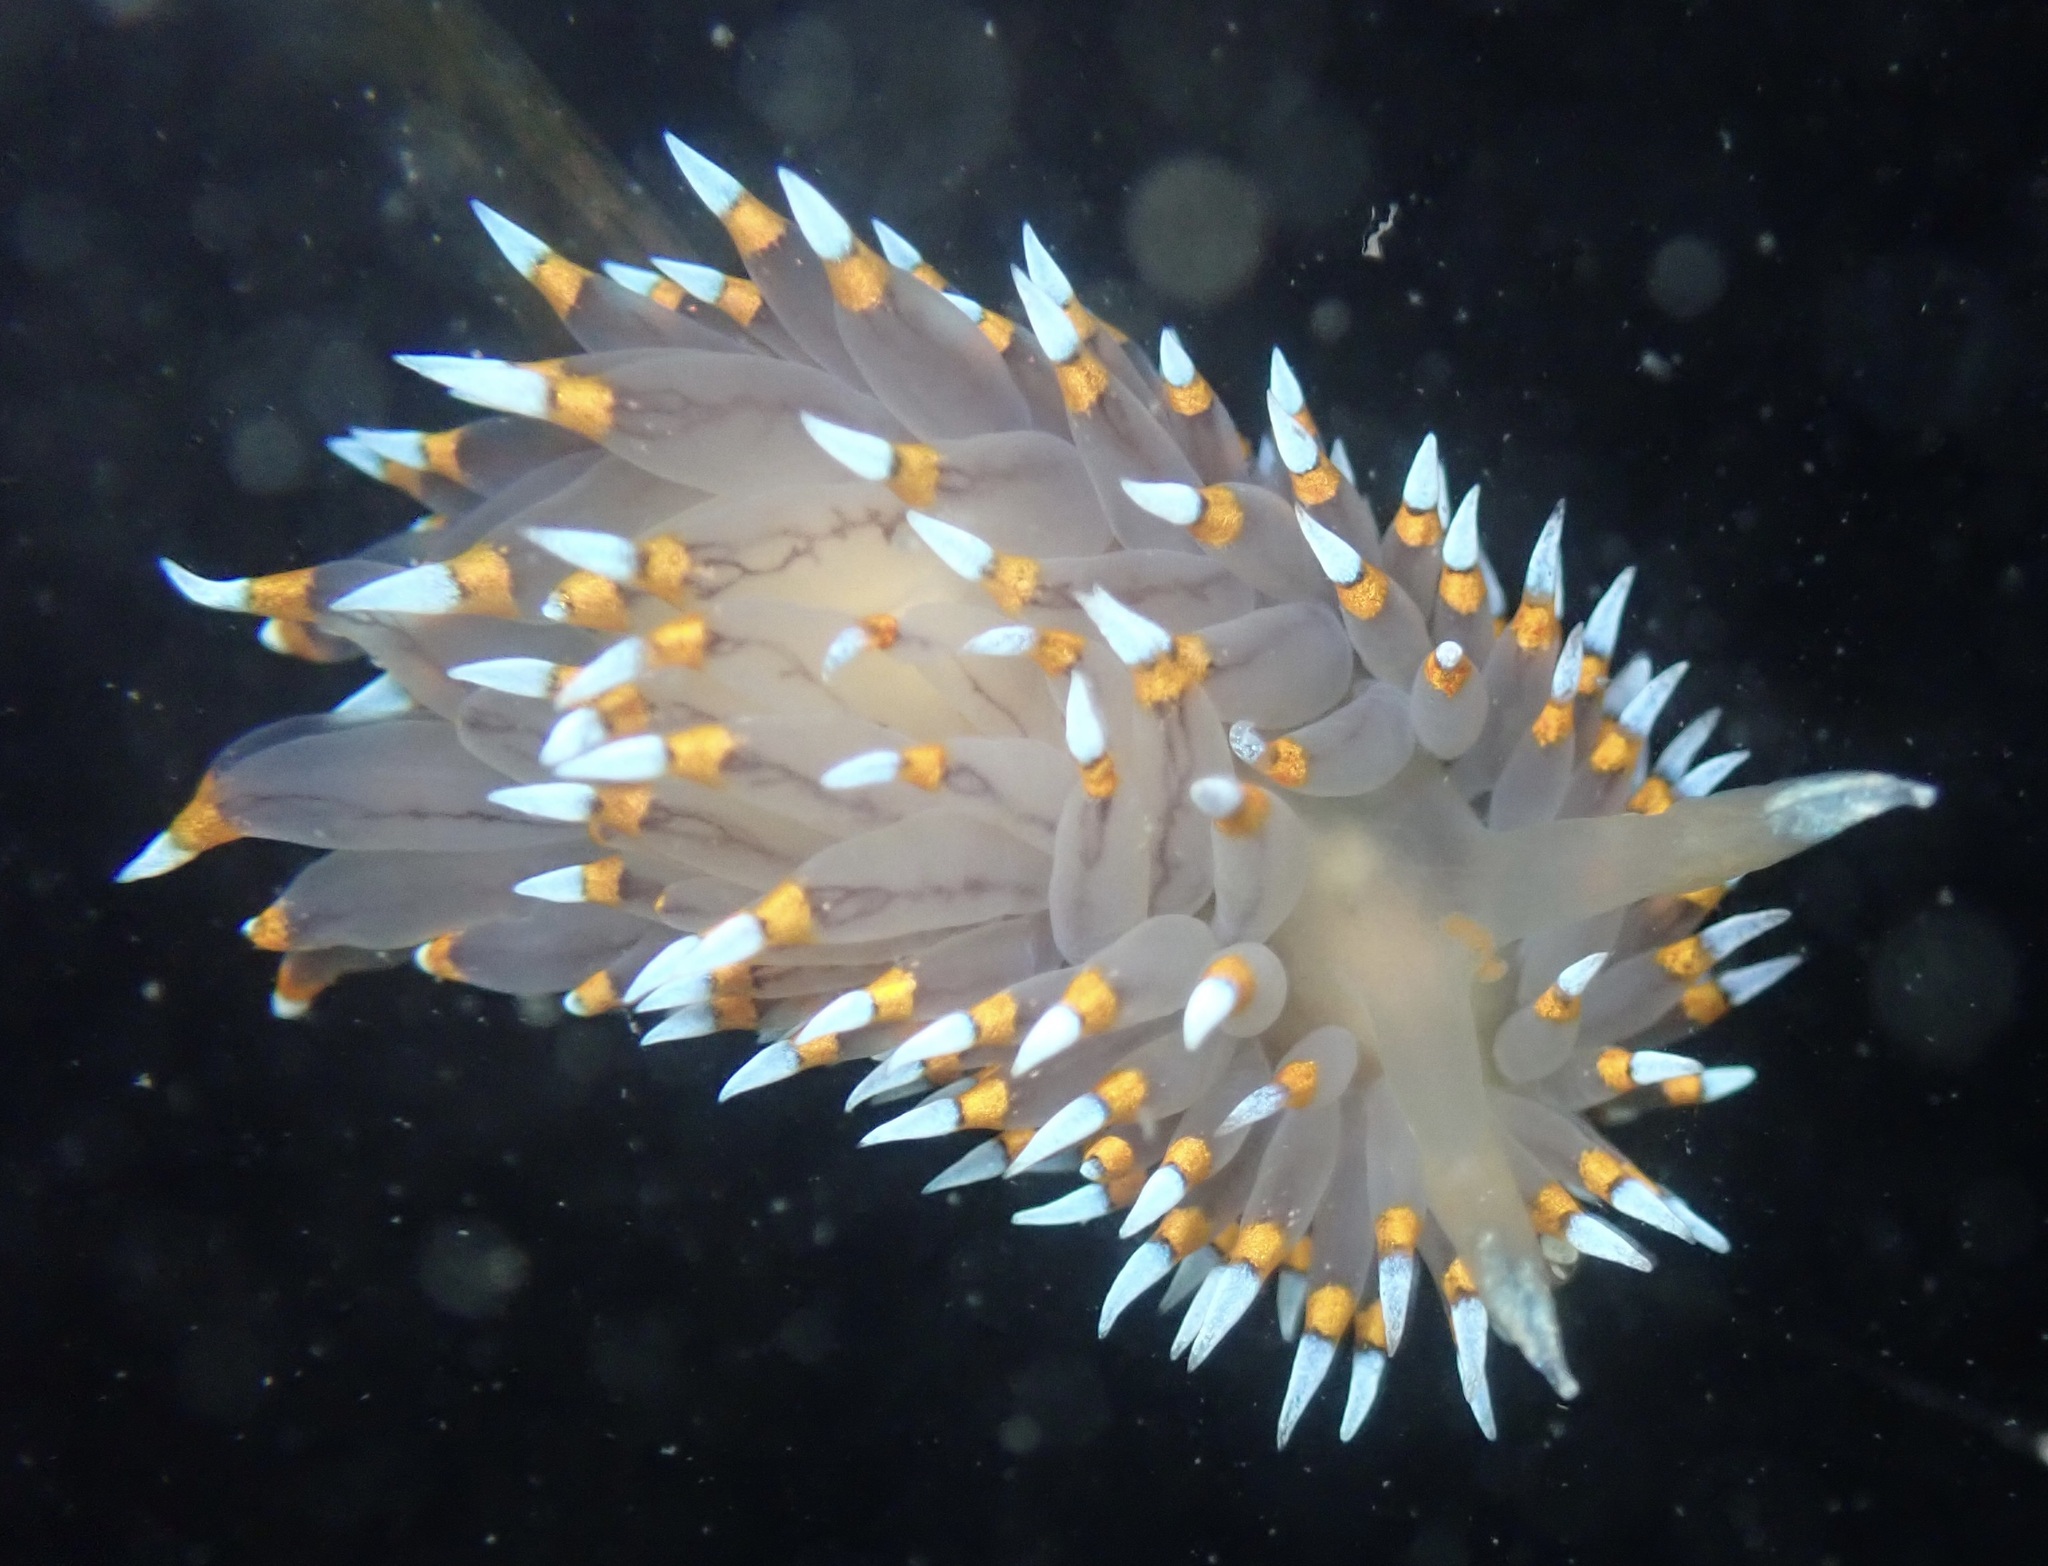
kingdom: Animalia
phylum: Mollusca
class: Gastropoda
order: Nudibranchia
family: Janolidae
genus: Antiopella
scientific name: Antiopella barbarensis
